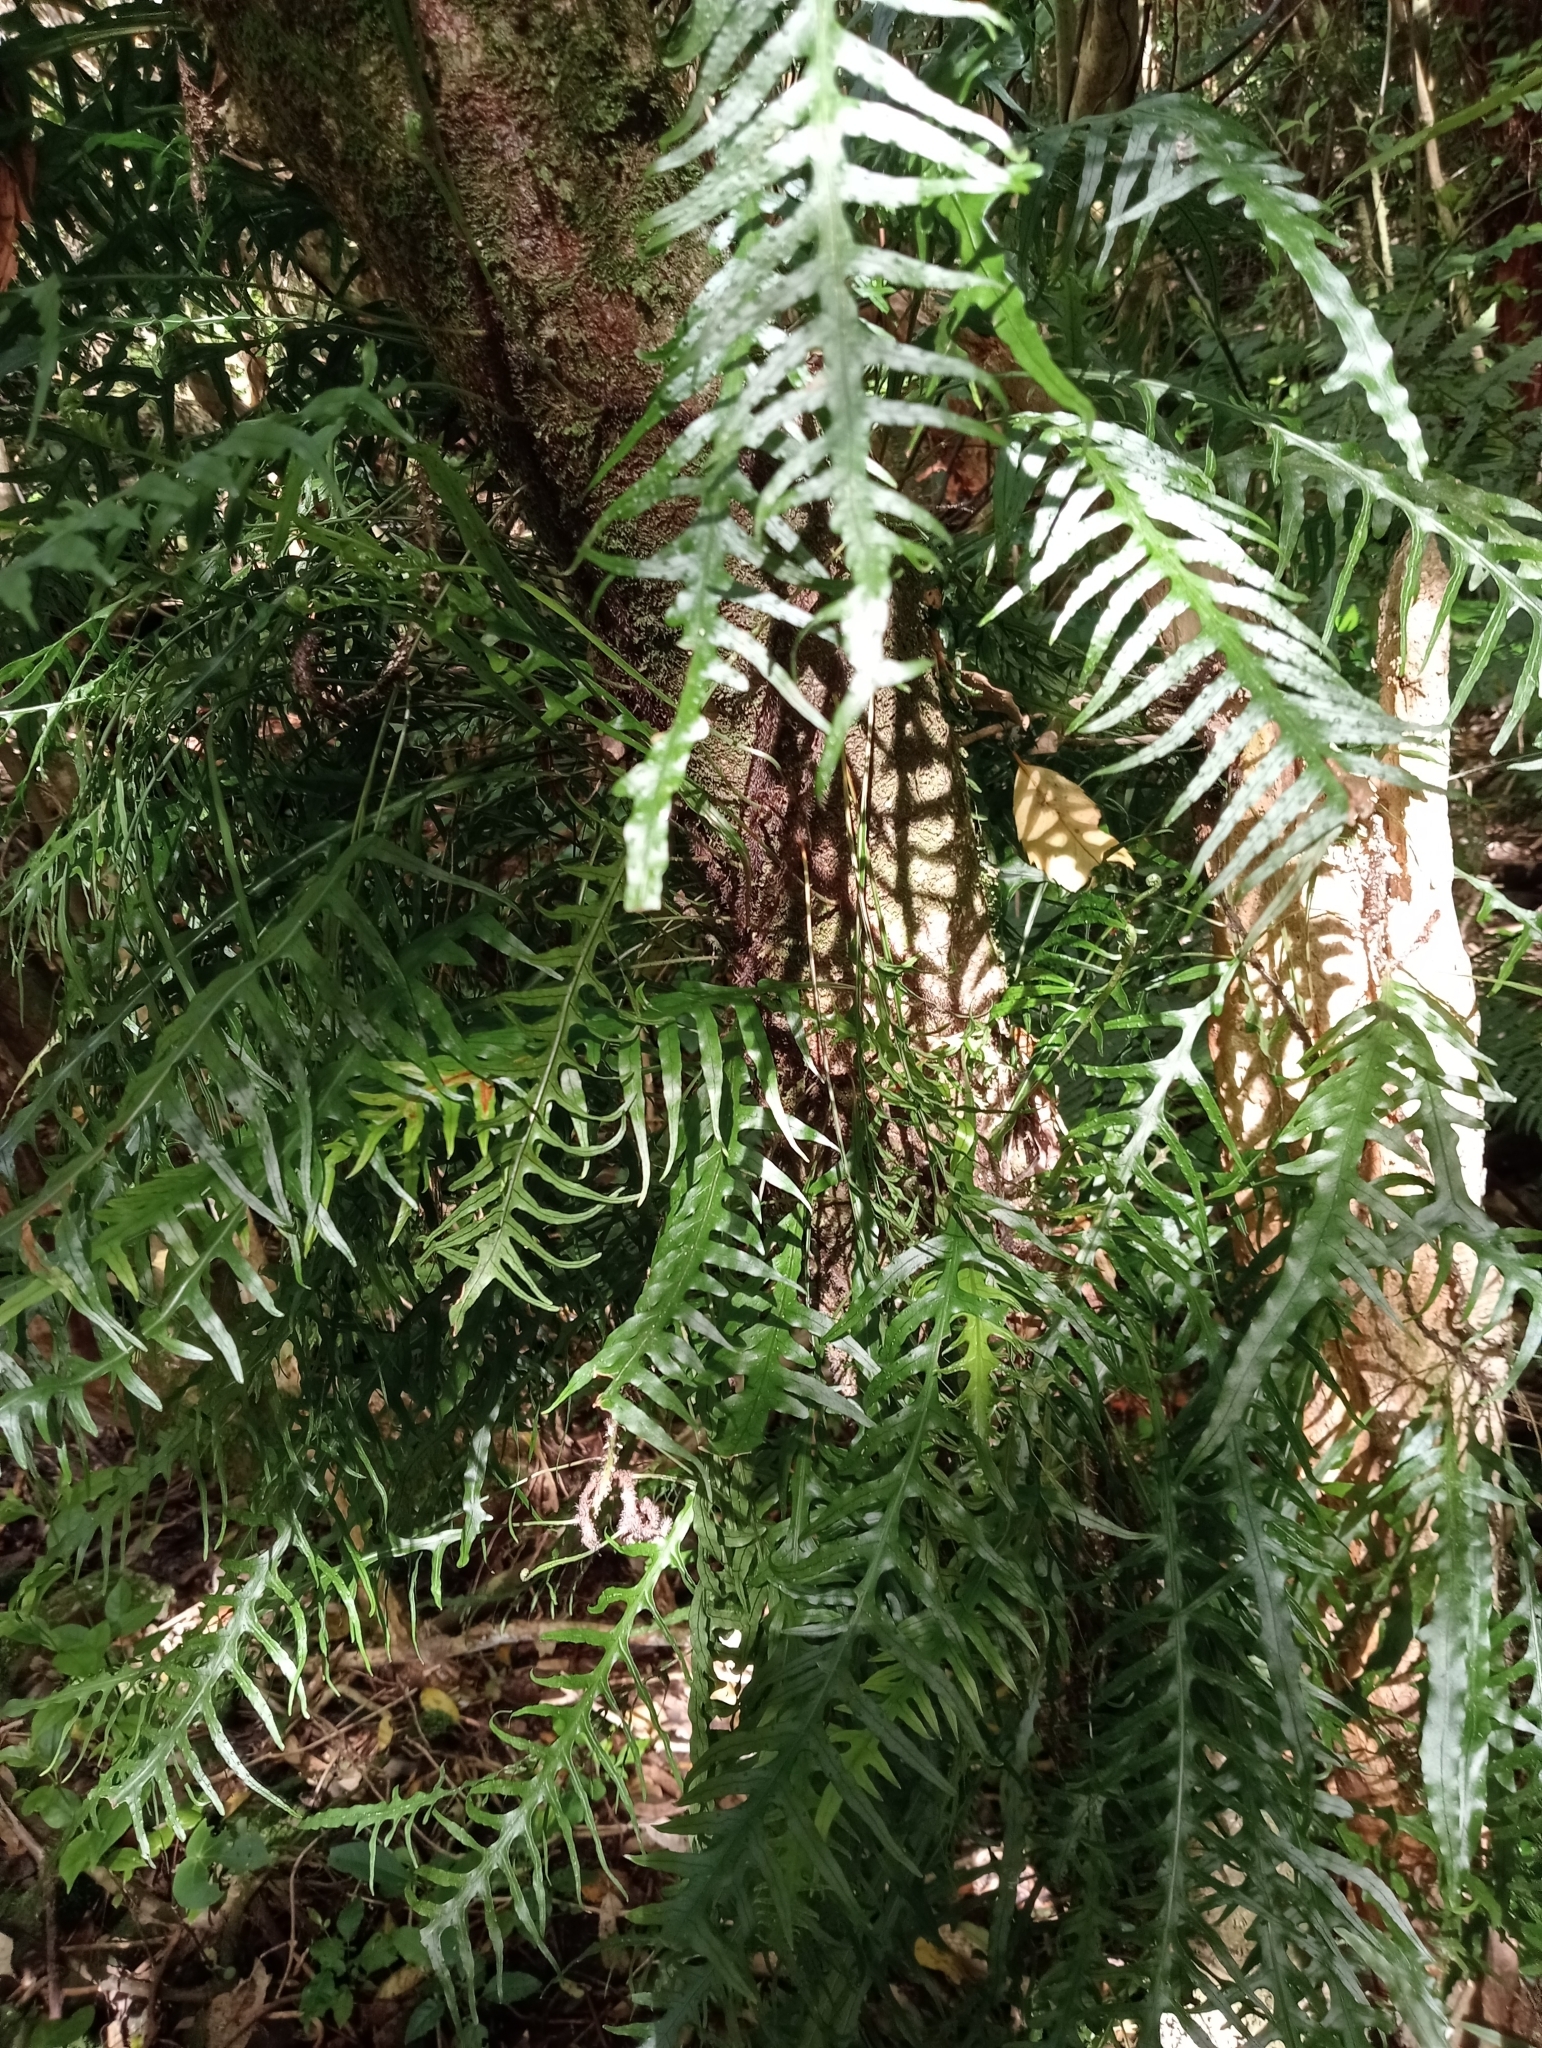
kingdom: Plantae
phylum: Tracheophyta
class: Polypodiopsida
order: Polypodiales
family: Polypodiaceae
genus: Lecanopteris
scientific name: Lecanopteris scandens
